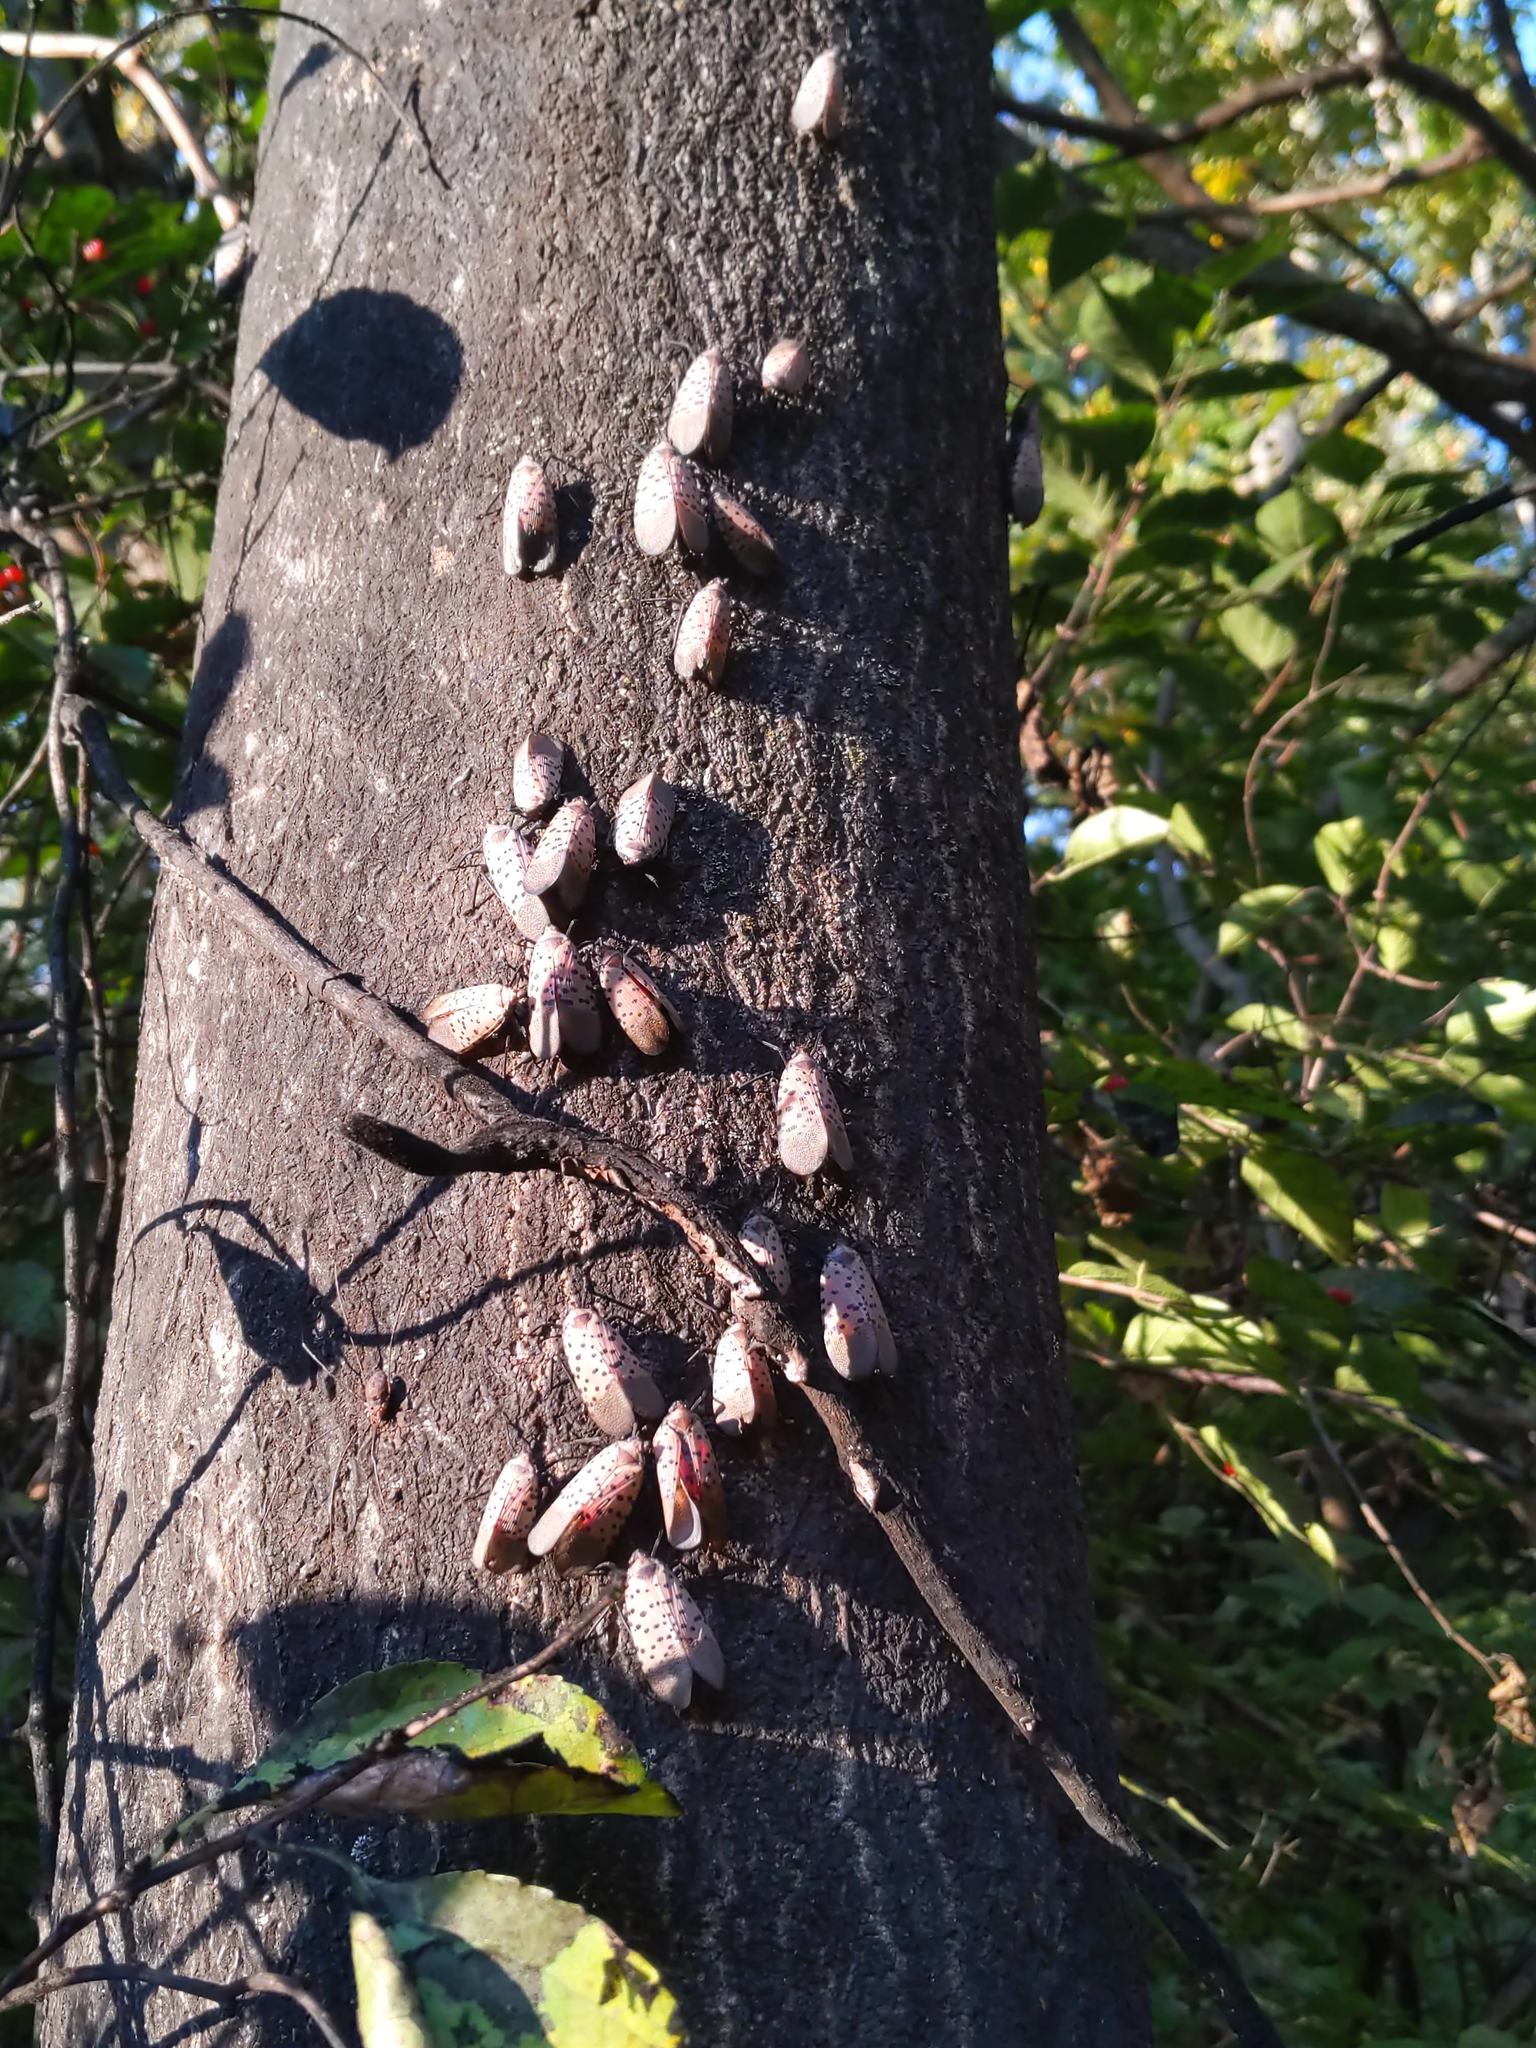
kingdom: Animalia
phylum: Arthropoda
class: Insecta
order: Hemiptera
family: Fulgoridae
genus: Lycorma
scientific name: Lycorma delicatula
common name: Spotted lanternfly
